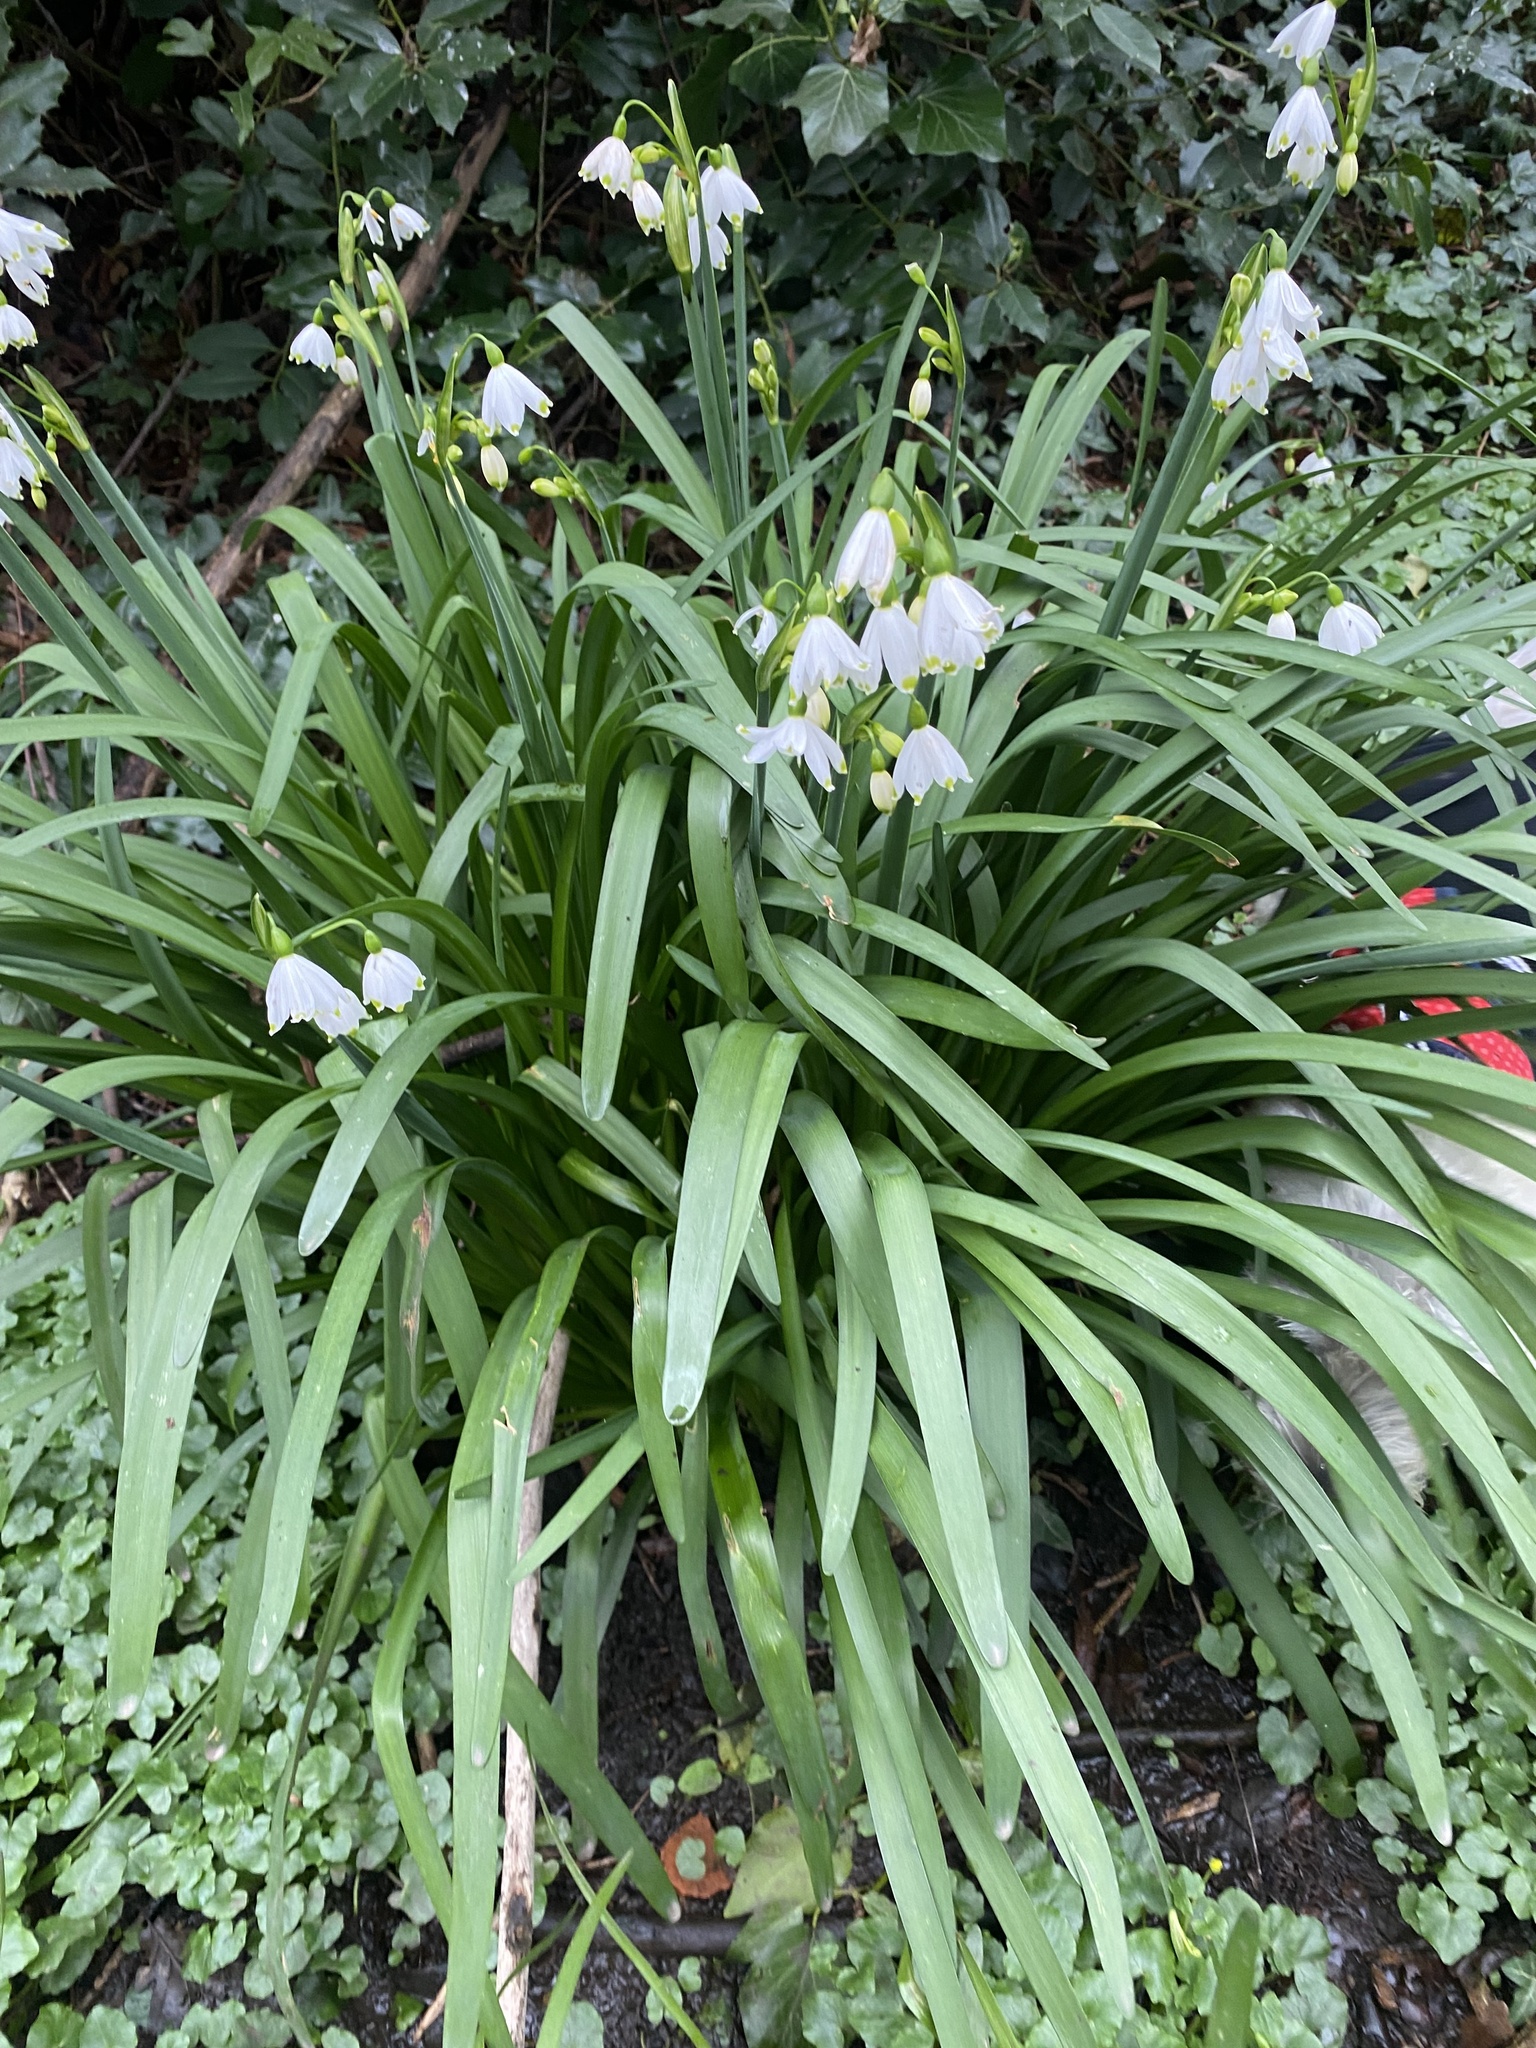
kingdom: Plantae
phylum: Tracheophyta
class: Liliopsida
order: Asparagales
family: Amaryllidaceae
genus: Leucojum
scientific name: Leucojum aestivum
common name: Summer snowflake
